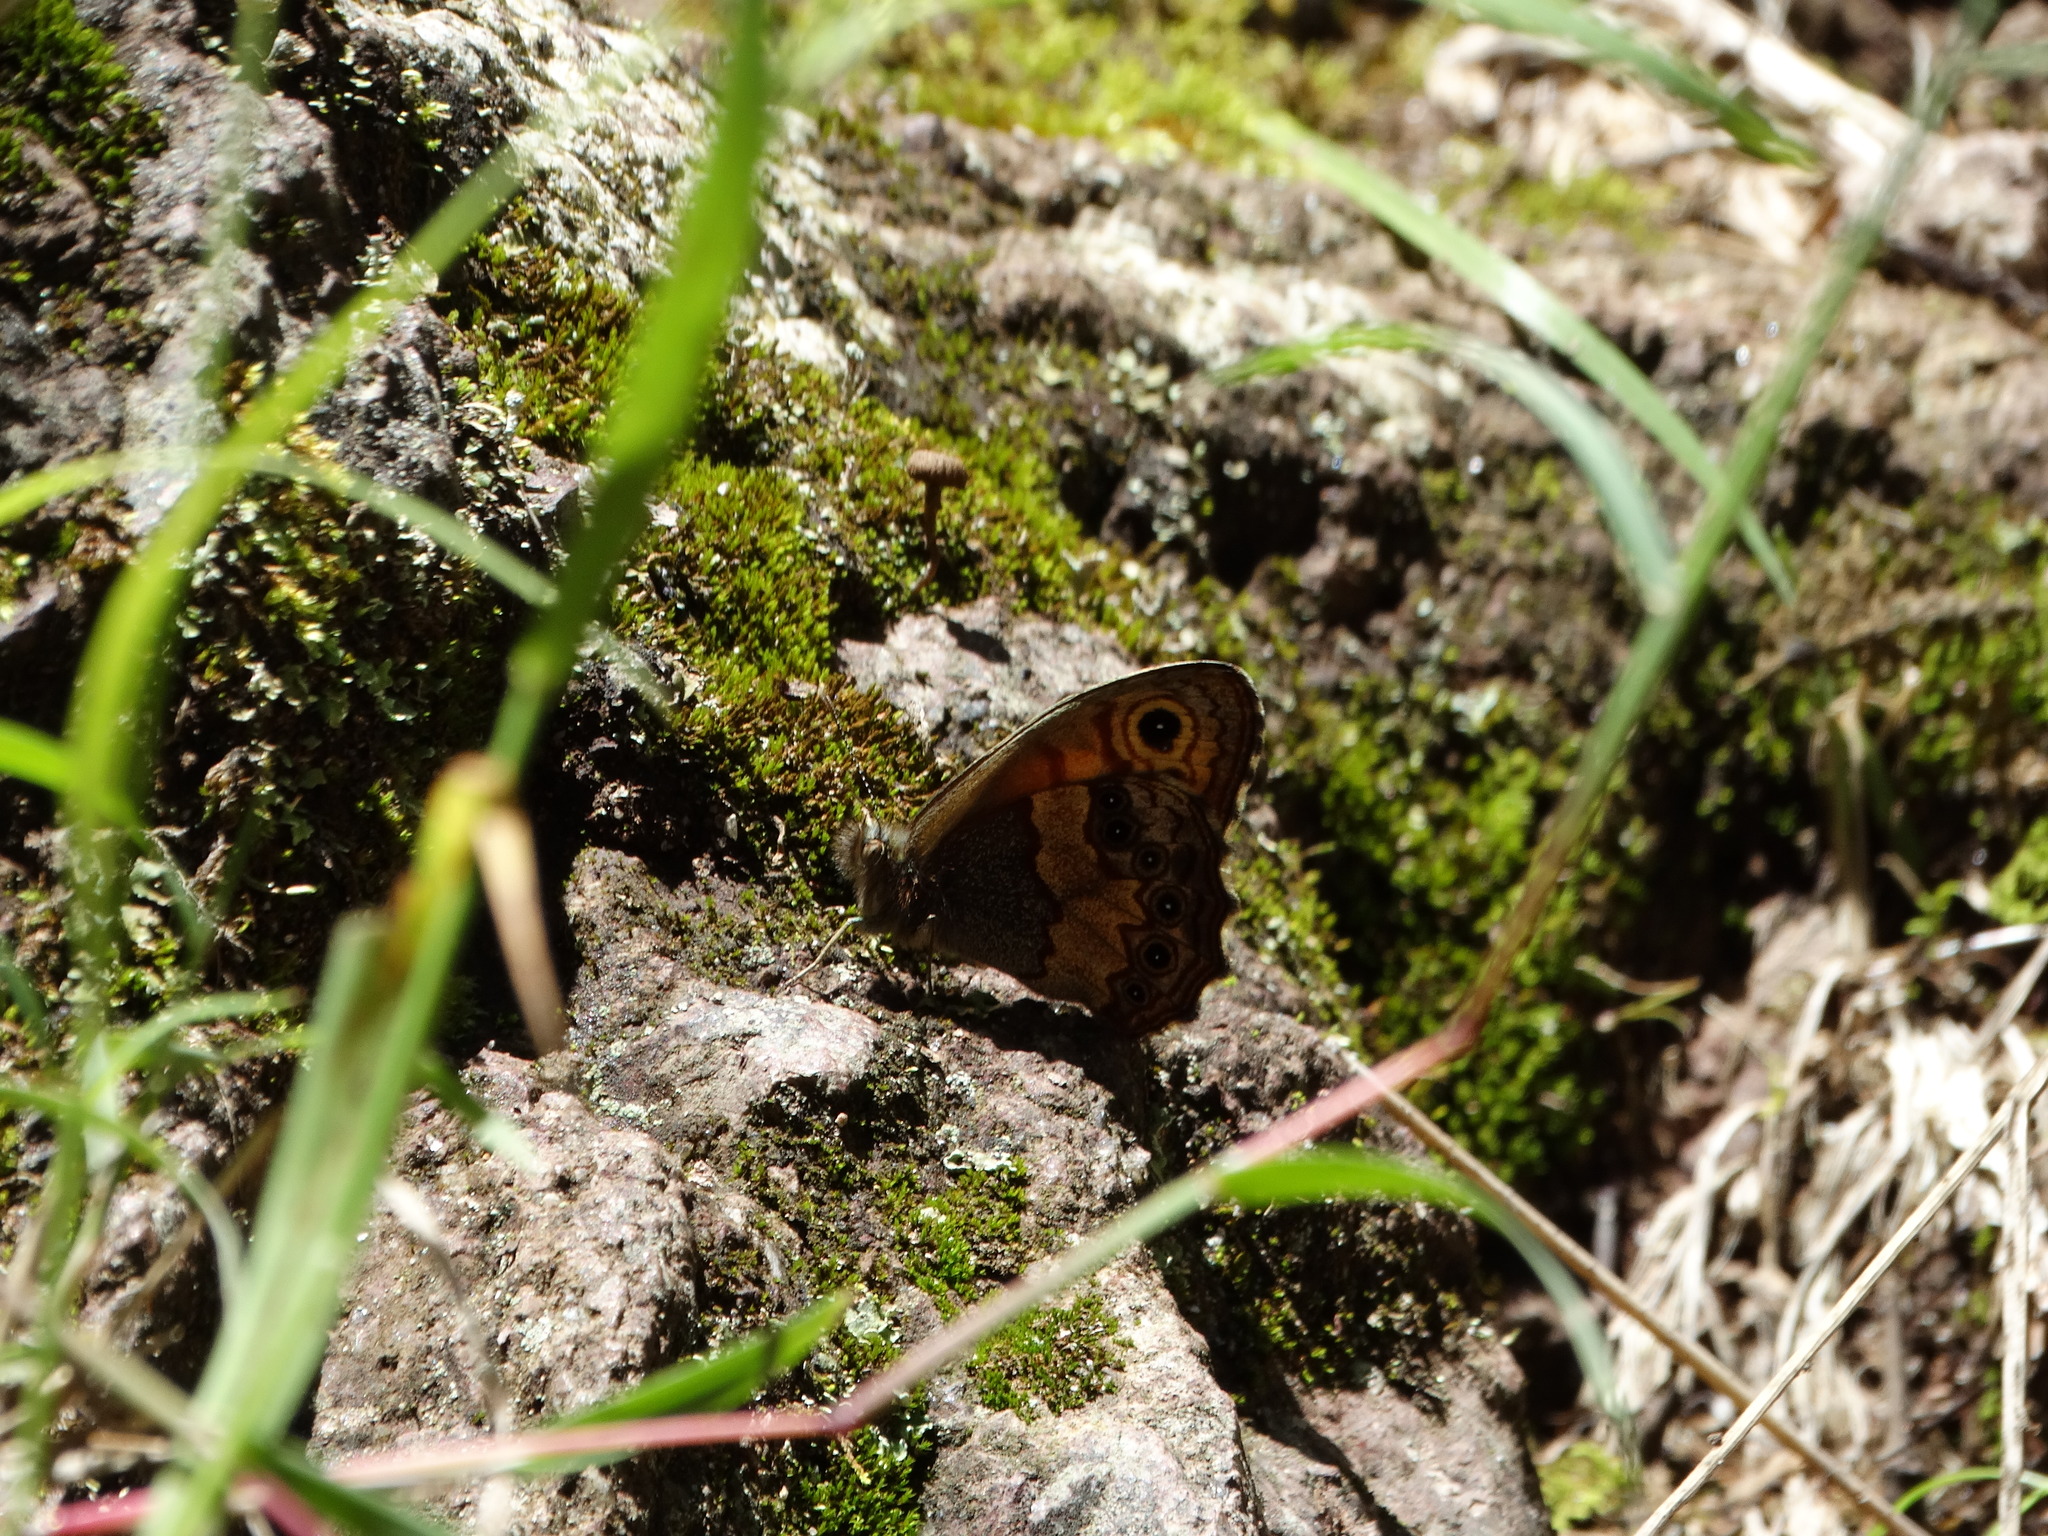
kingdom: Animalia
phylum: Arthropoda
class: Insecta
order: Lepidoptera
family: Nymphalidae
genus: Paramecera
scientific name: Paramecera xicaque
